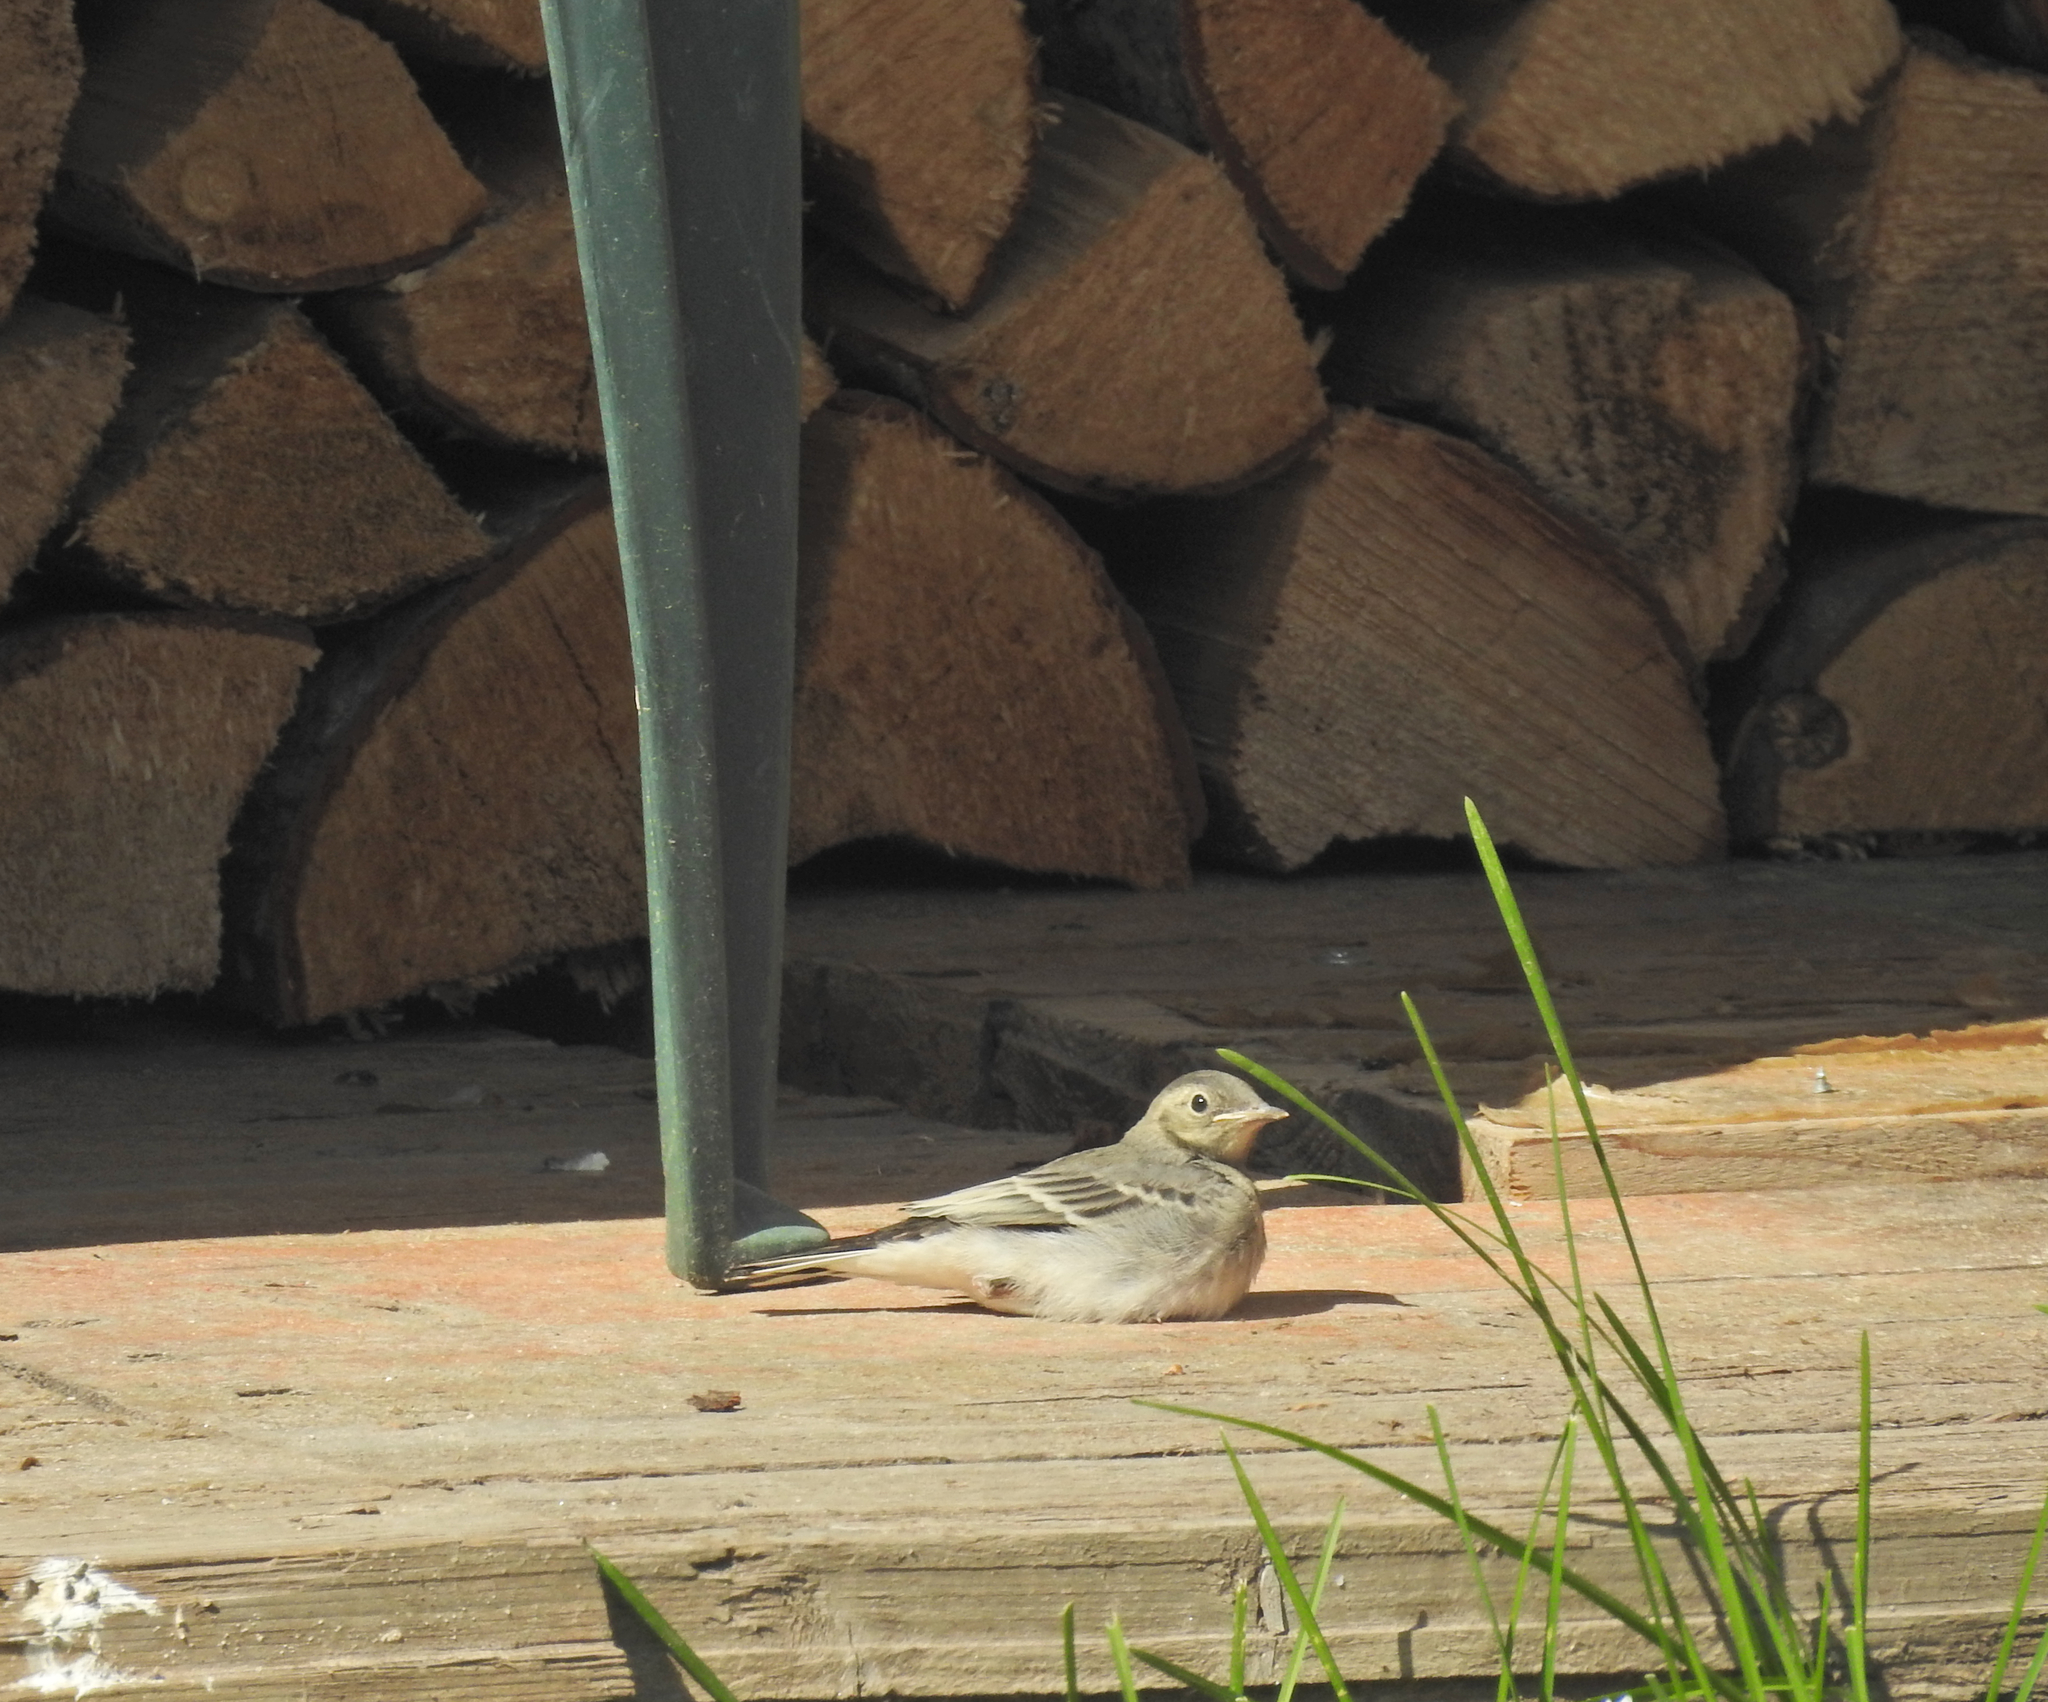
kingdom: Animalia
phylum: Chordata
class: Aves
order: Passeriformes
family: Motacillidae
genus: Motacilla
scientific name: Motacilla alba
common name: White wagtail
